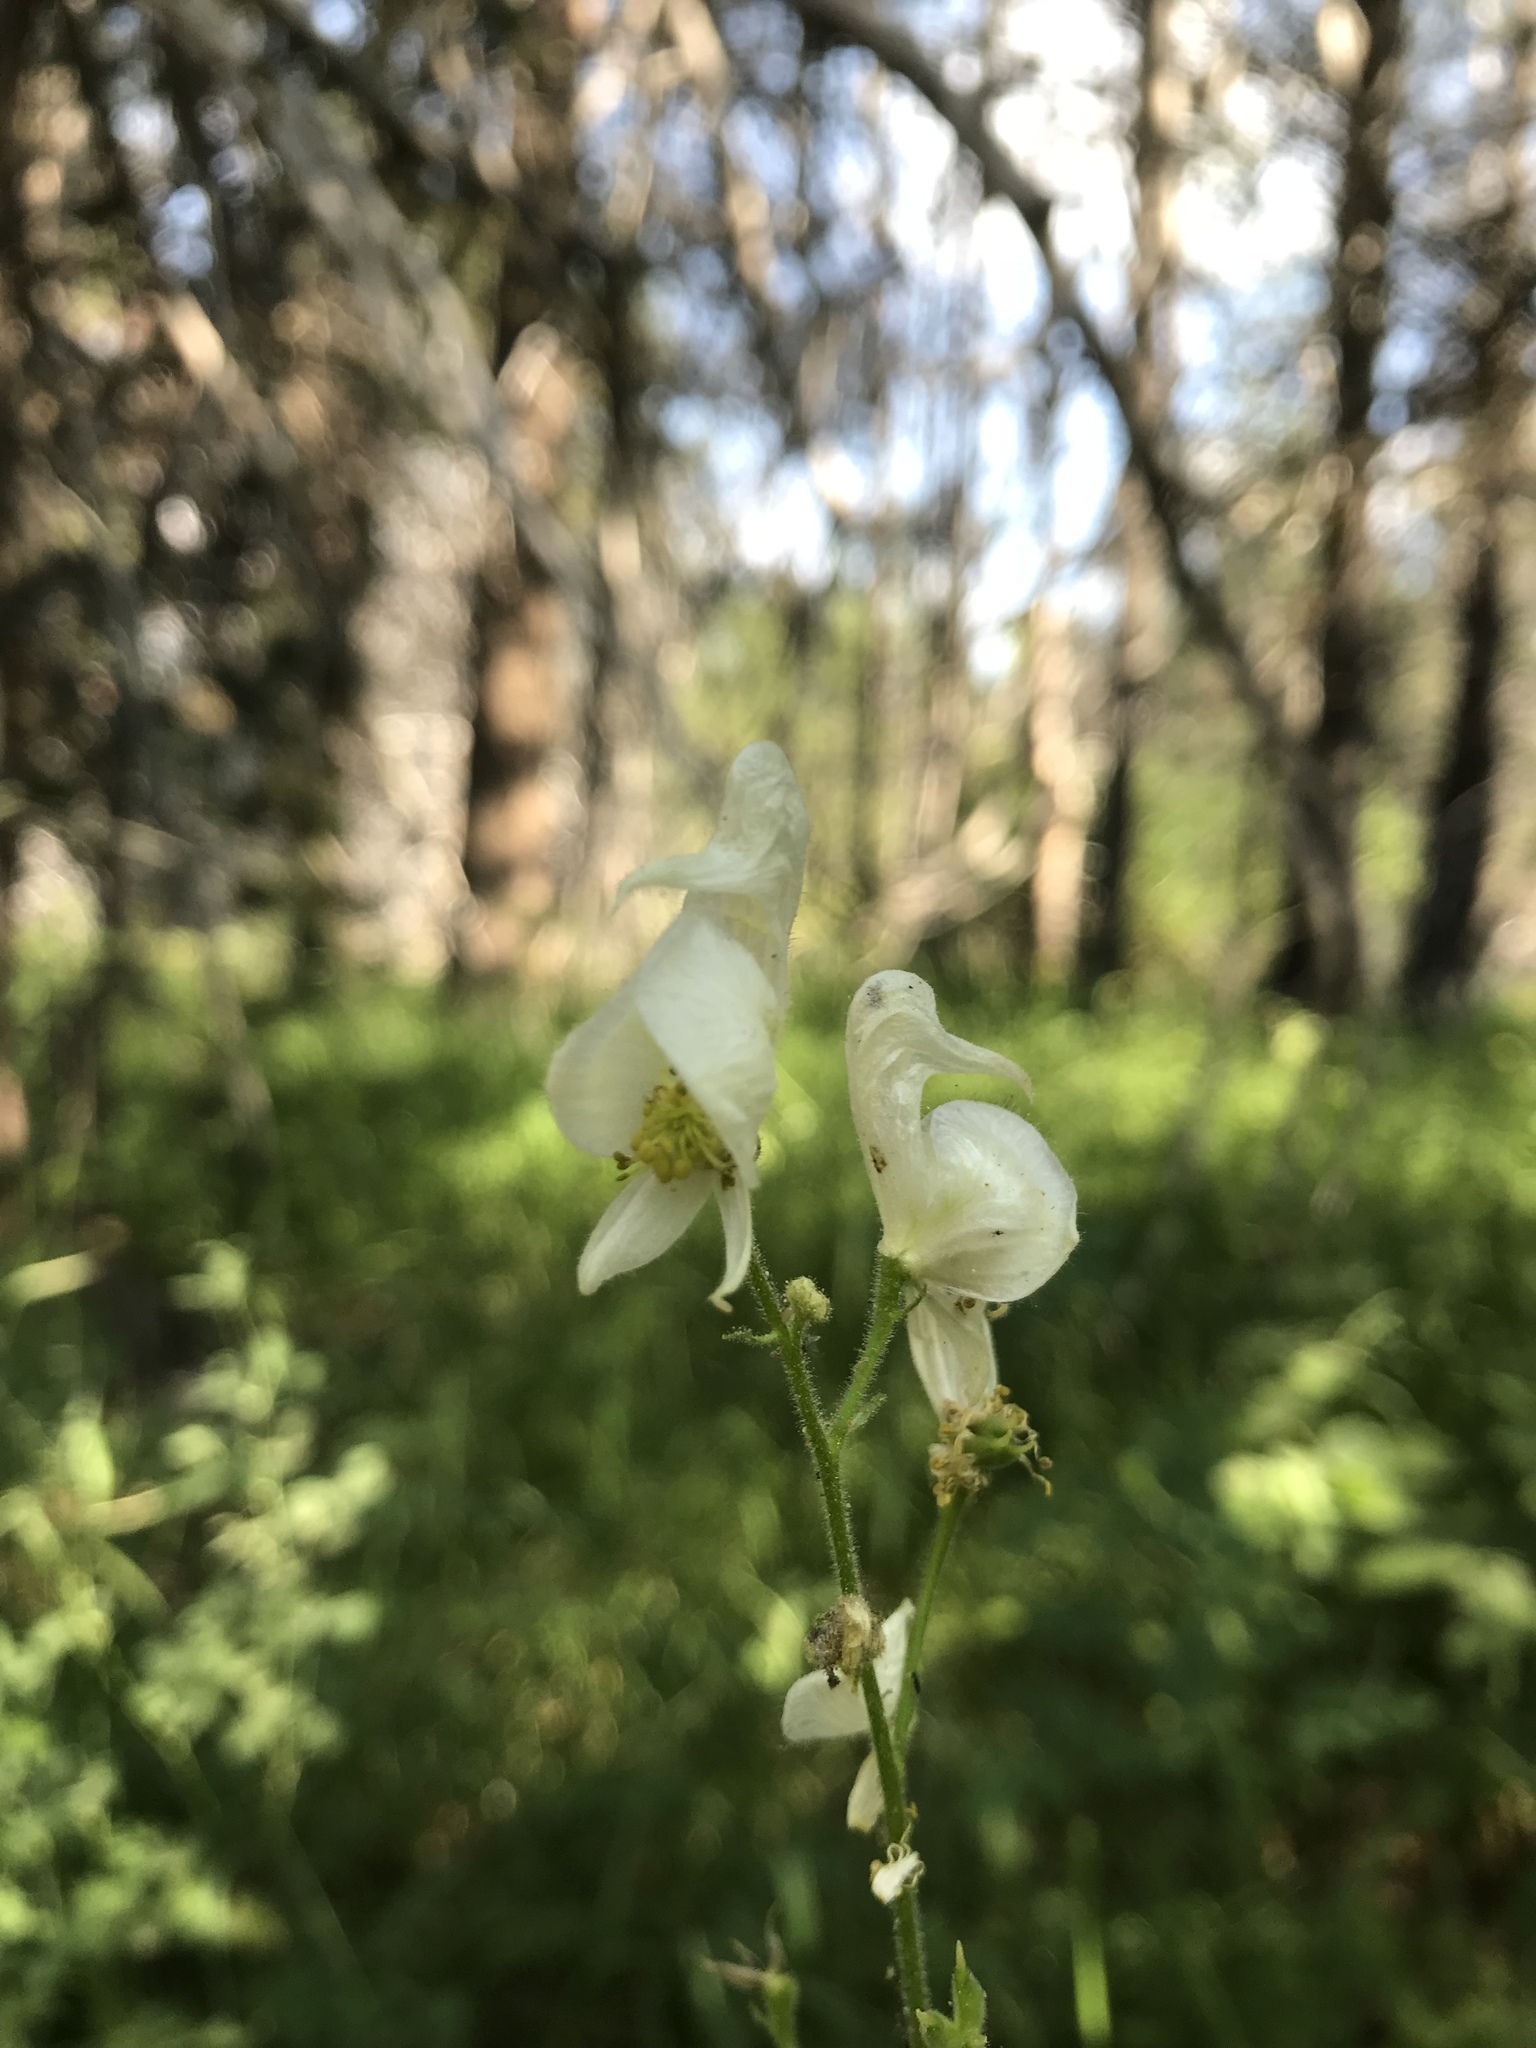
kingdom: Plantae
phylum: Tracheophyta
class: Magnoliopsida
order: Ranunculales
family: Ranunculaceae
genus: Aconitum
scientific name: Aconitum columbianum
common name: Columbia aconite
